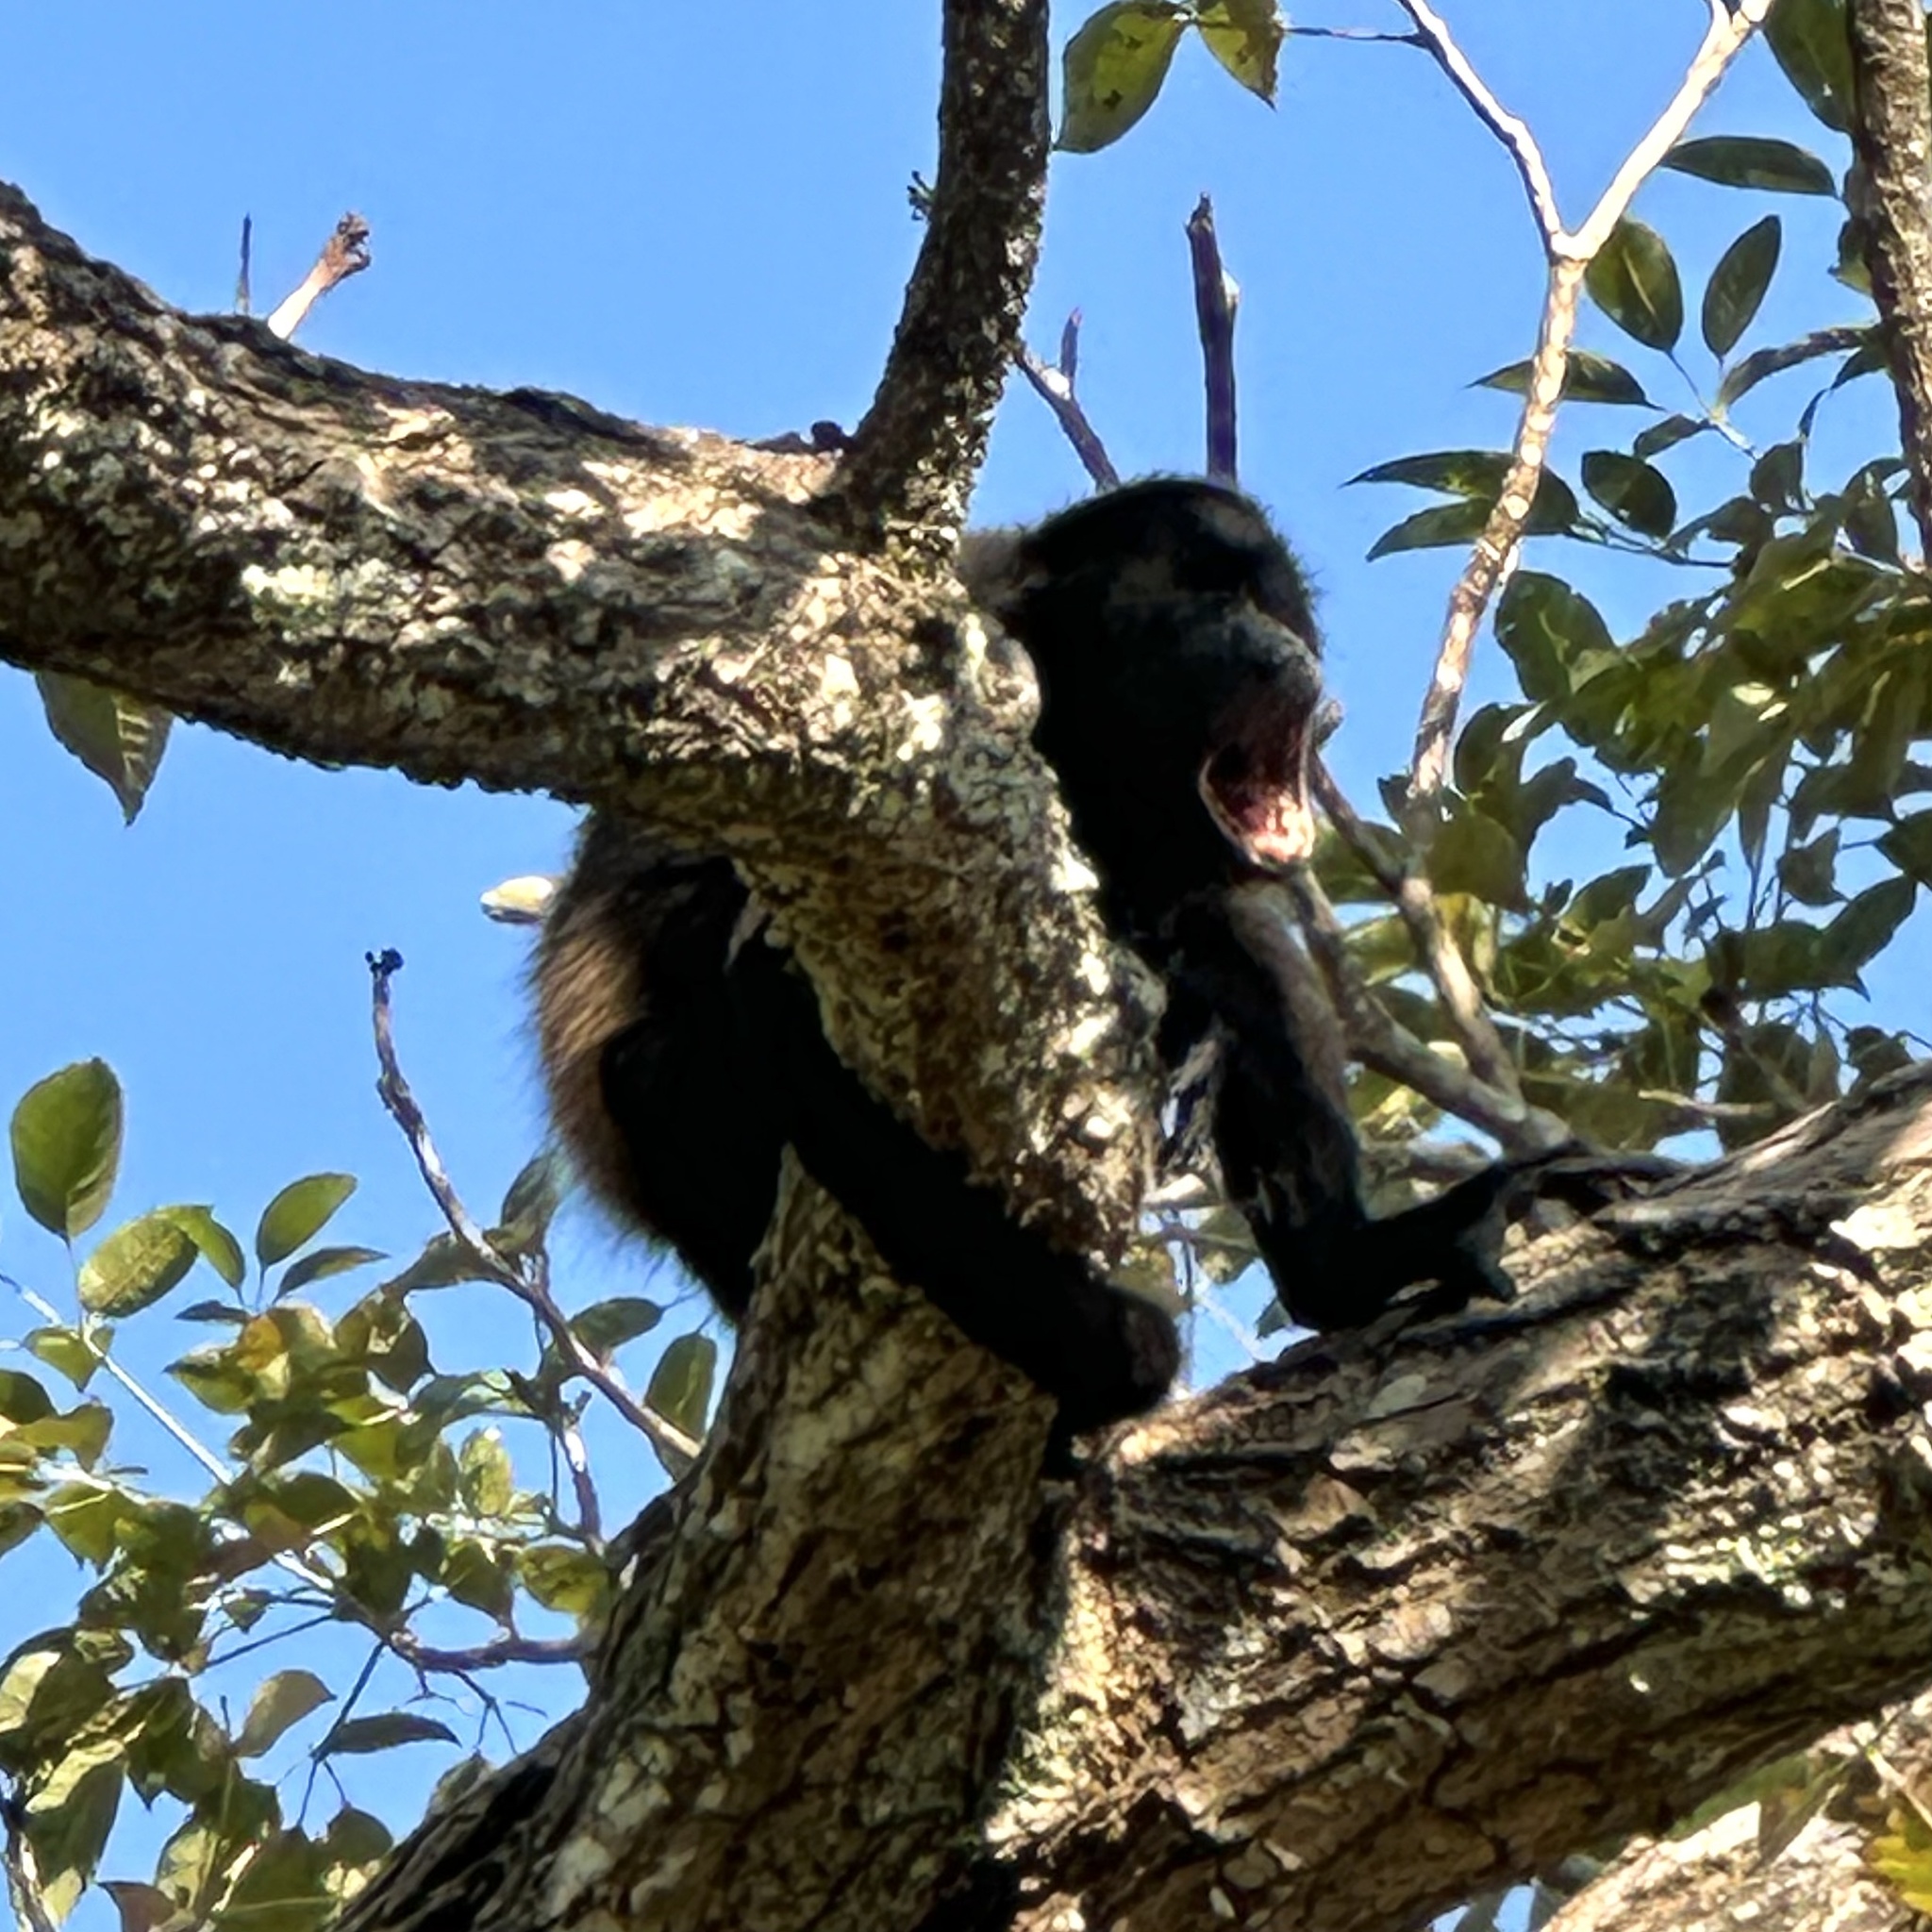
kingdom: Animalia
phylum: Chordata
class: Mammalia
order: Primates
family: Atelidae
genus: Alouatta
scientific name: Alouatta palliata
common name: Mantled howler
